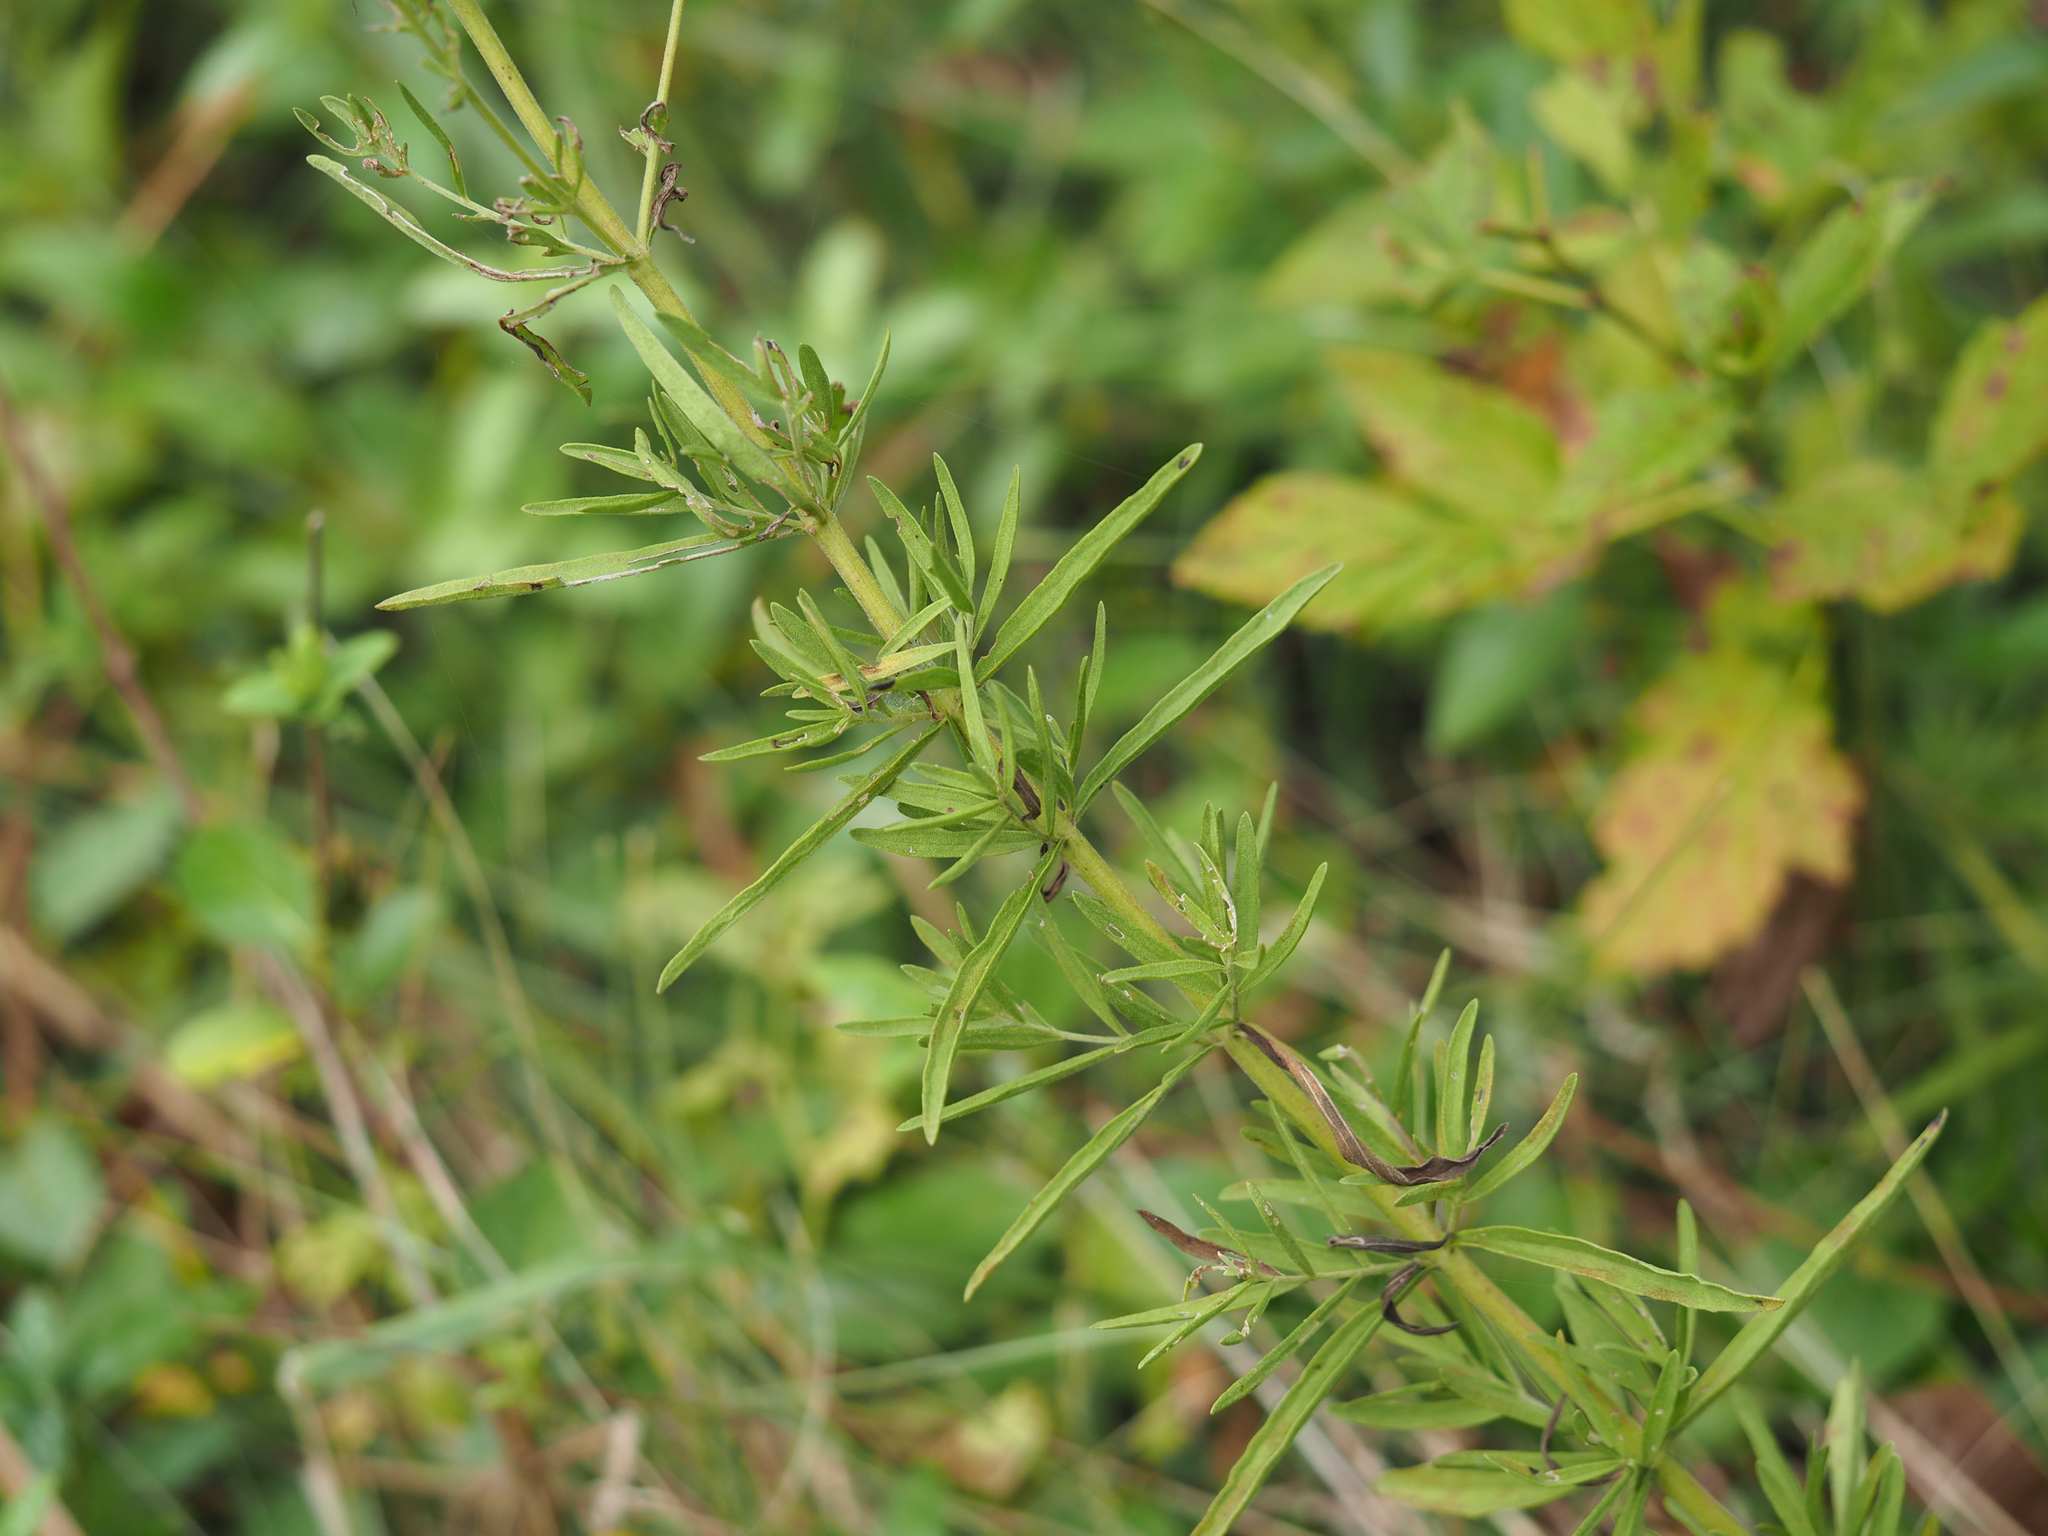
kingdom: Plantae
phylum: Tracheophyta
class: Magnoliopsida
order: Asterales
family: Asteraceae
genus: Eupatorium
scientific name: Eupatorium hyssopifolium
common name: Hyssop-leaf thoroughwort
